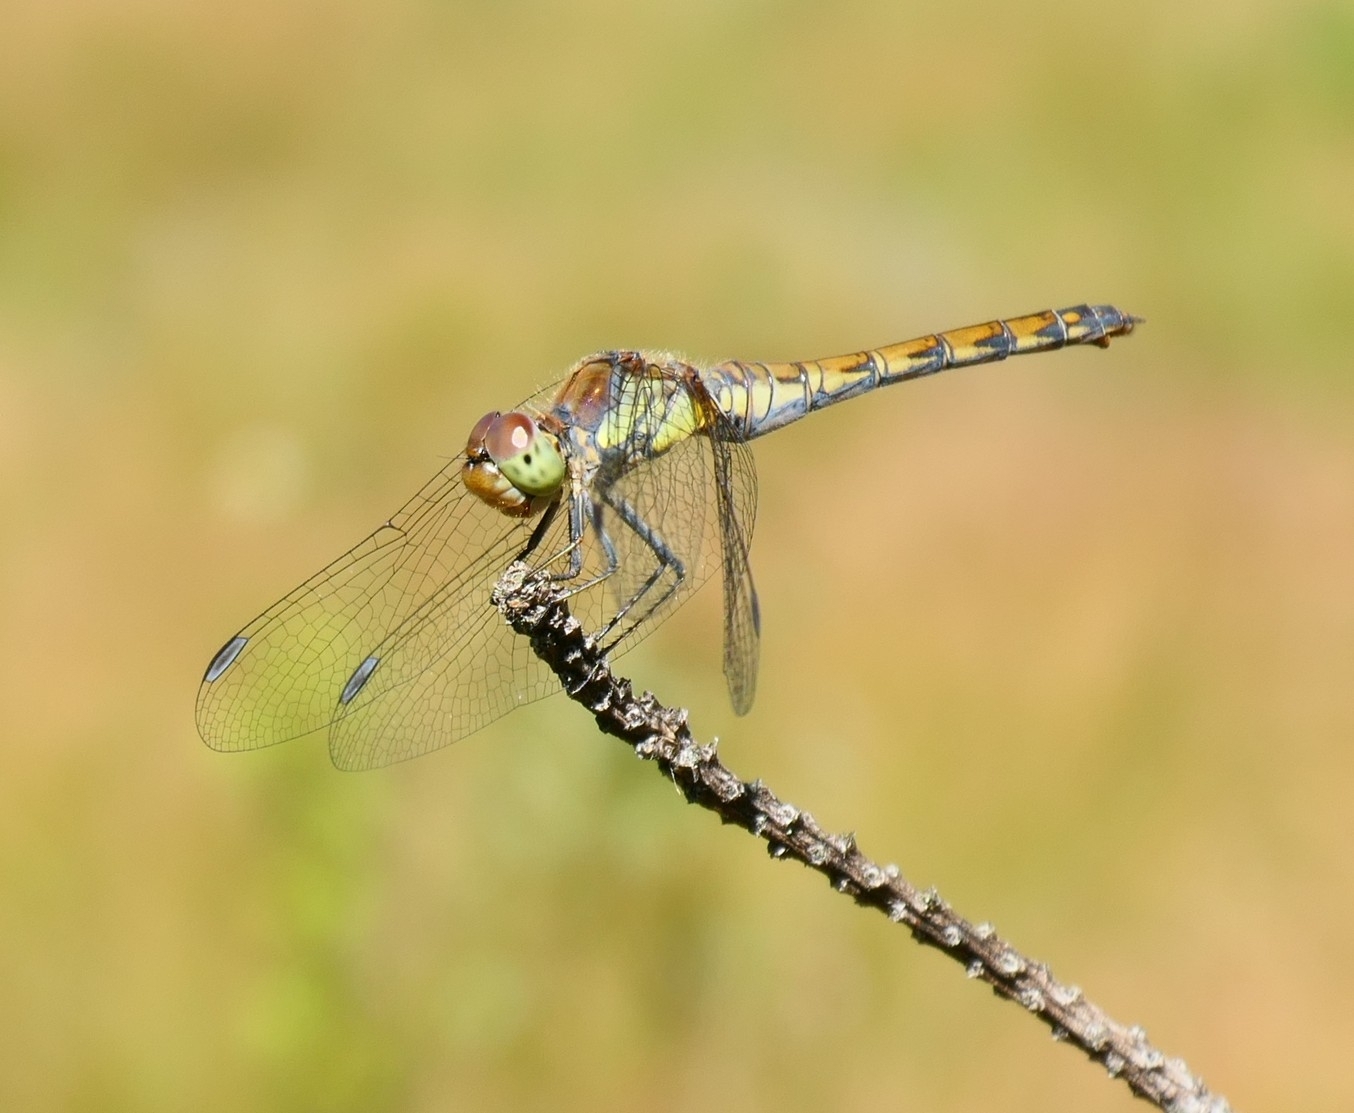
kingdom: Animalia
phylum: Arthropoda
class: Insecta
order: Odonata
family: Libellulidae
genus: Sympetrum
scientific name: Sympetrum striolatum
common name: Common darter
